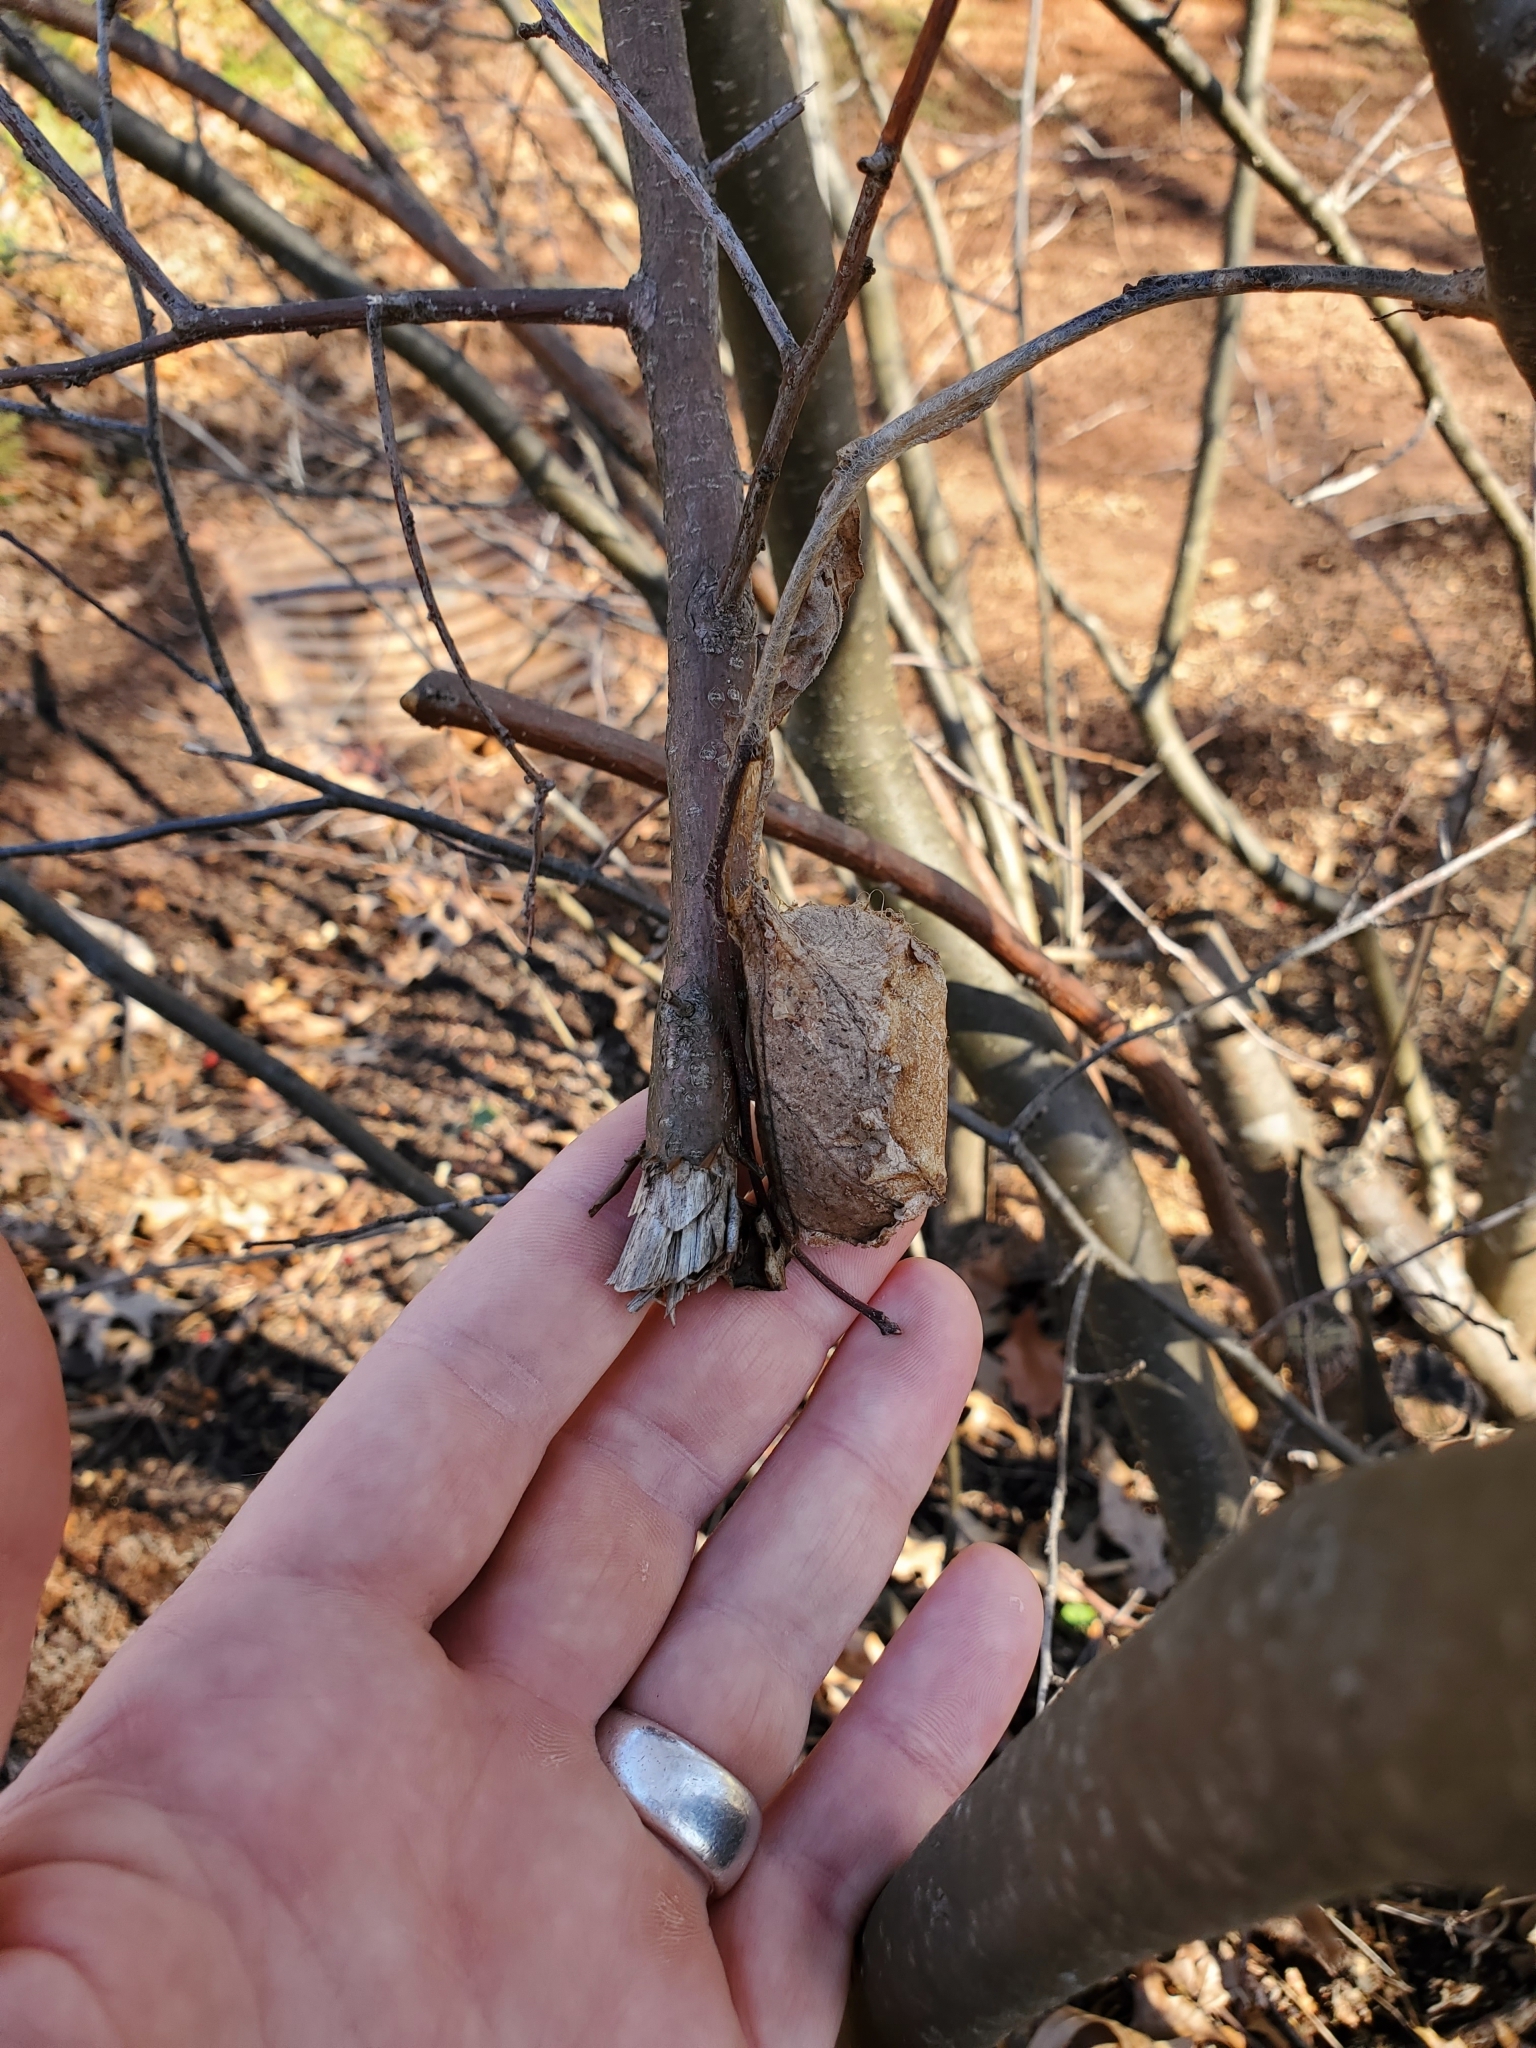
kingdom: Animalia
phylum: Arthropoda
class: Insecta
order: Lepidoptera
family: Saturniidae
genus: Antheraea
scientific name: Antheraea polyphemus
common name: Polyphemus moth
